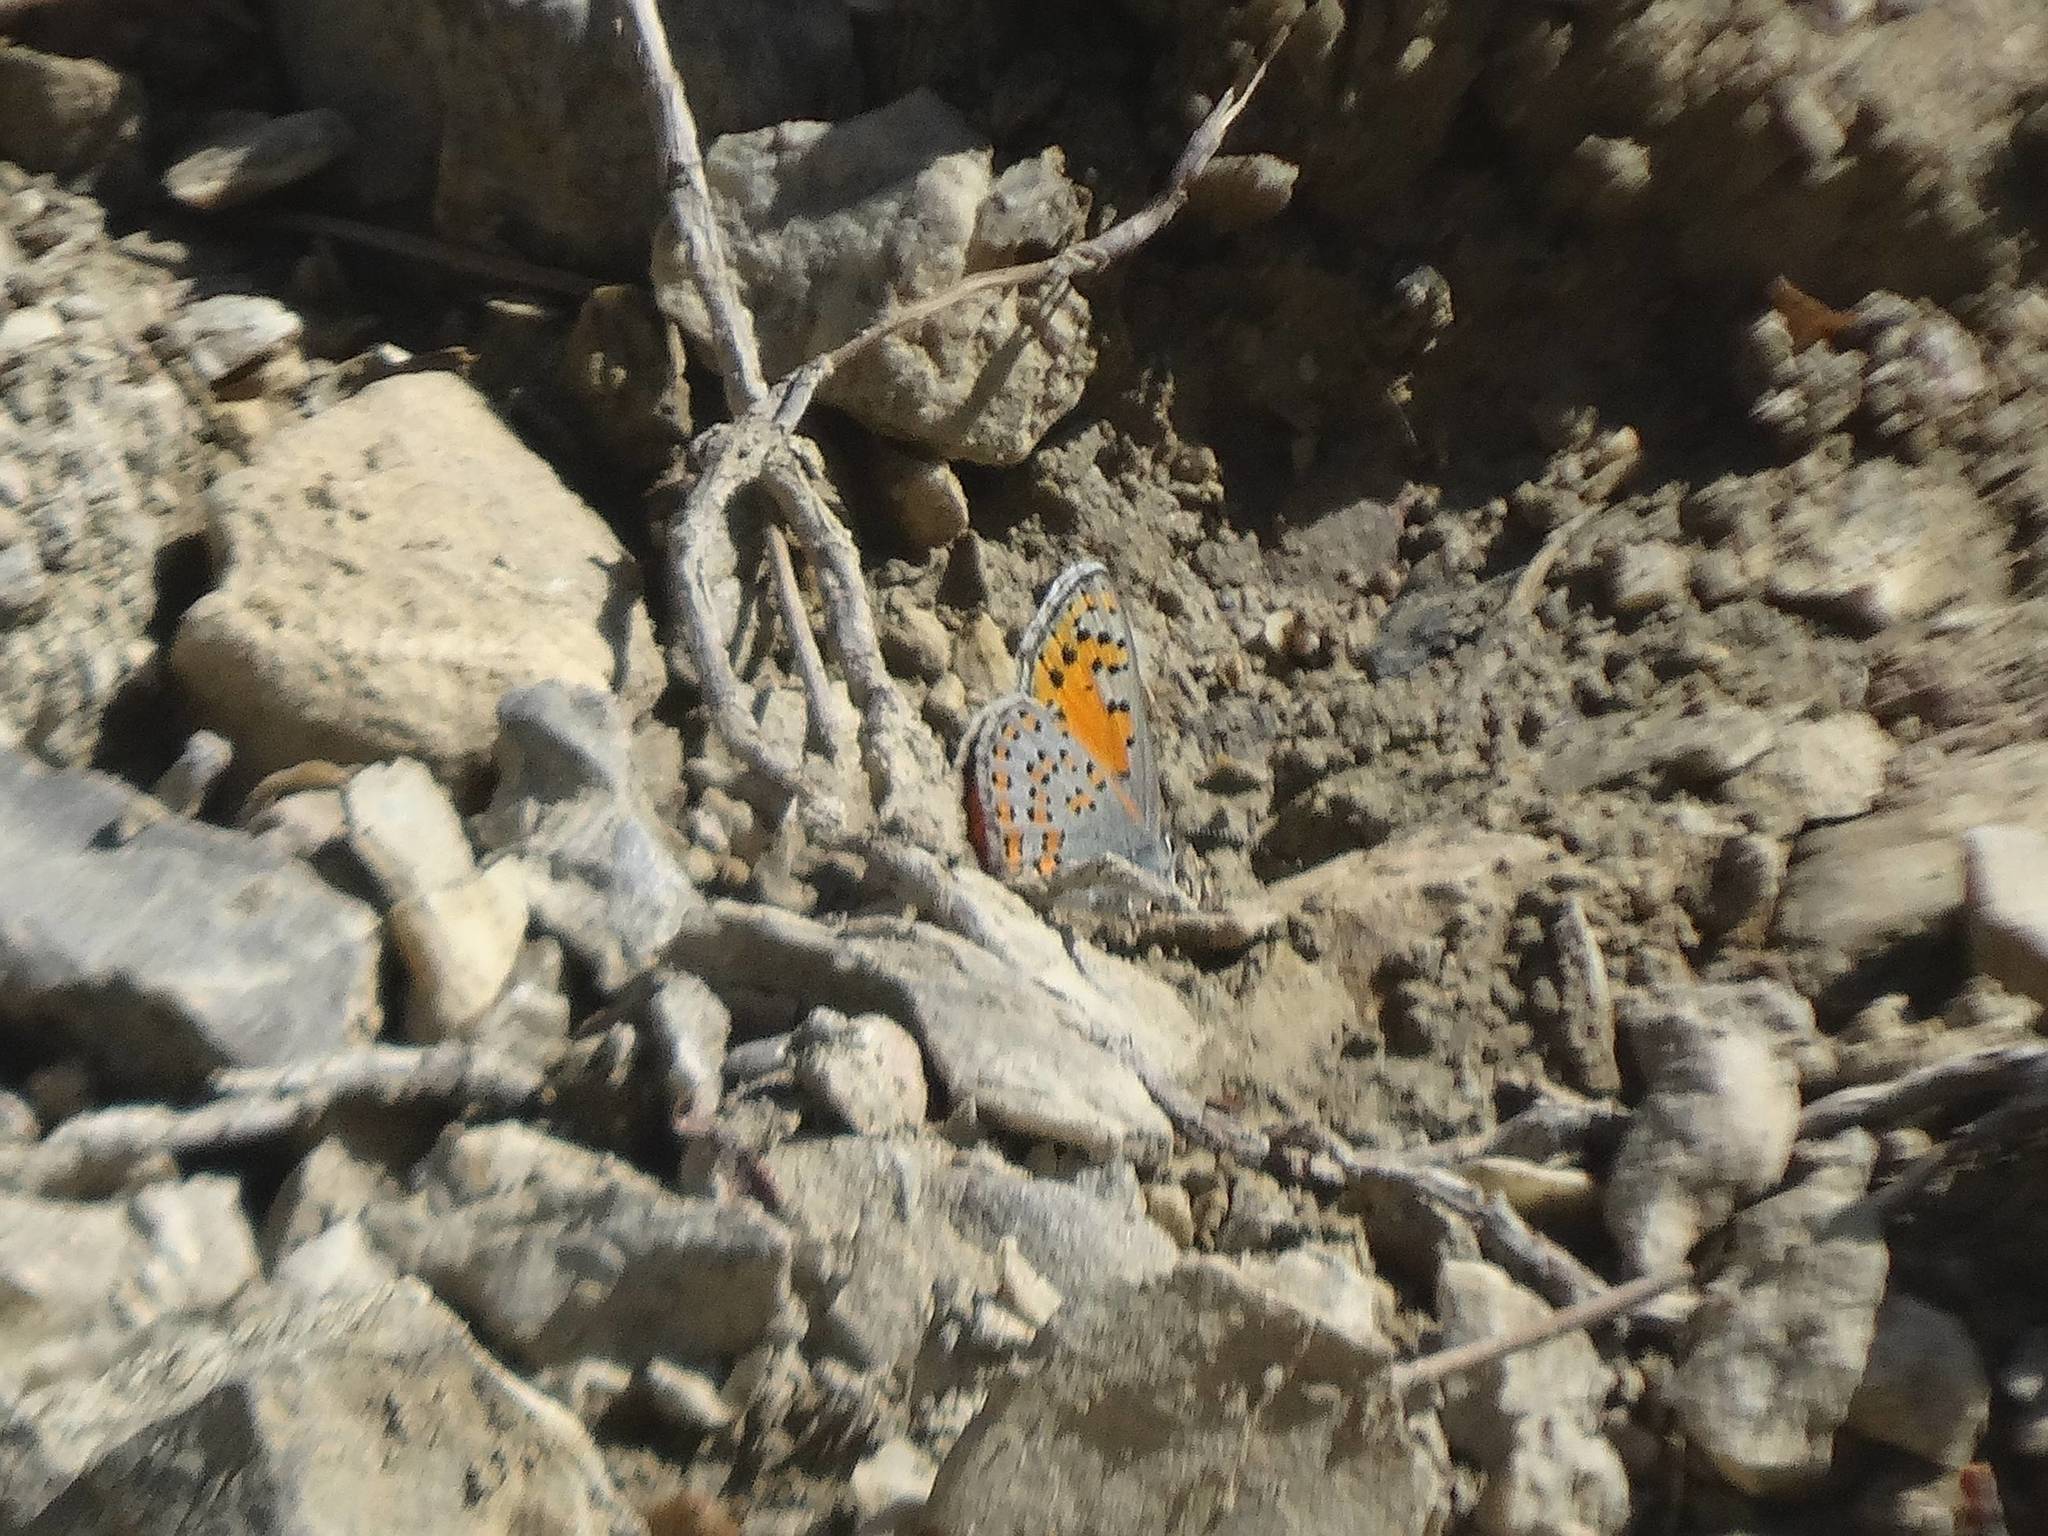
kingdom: Animalia
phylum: Arthropoda
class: Insecta
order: Lepidoptera
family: Lycaenidae
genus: Tomares
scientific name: Tomares nogelii
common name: Nogel's hairstreak
